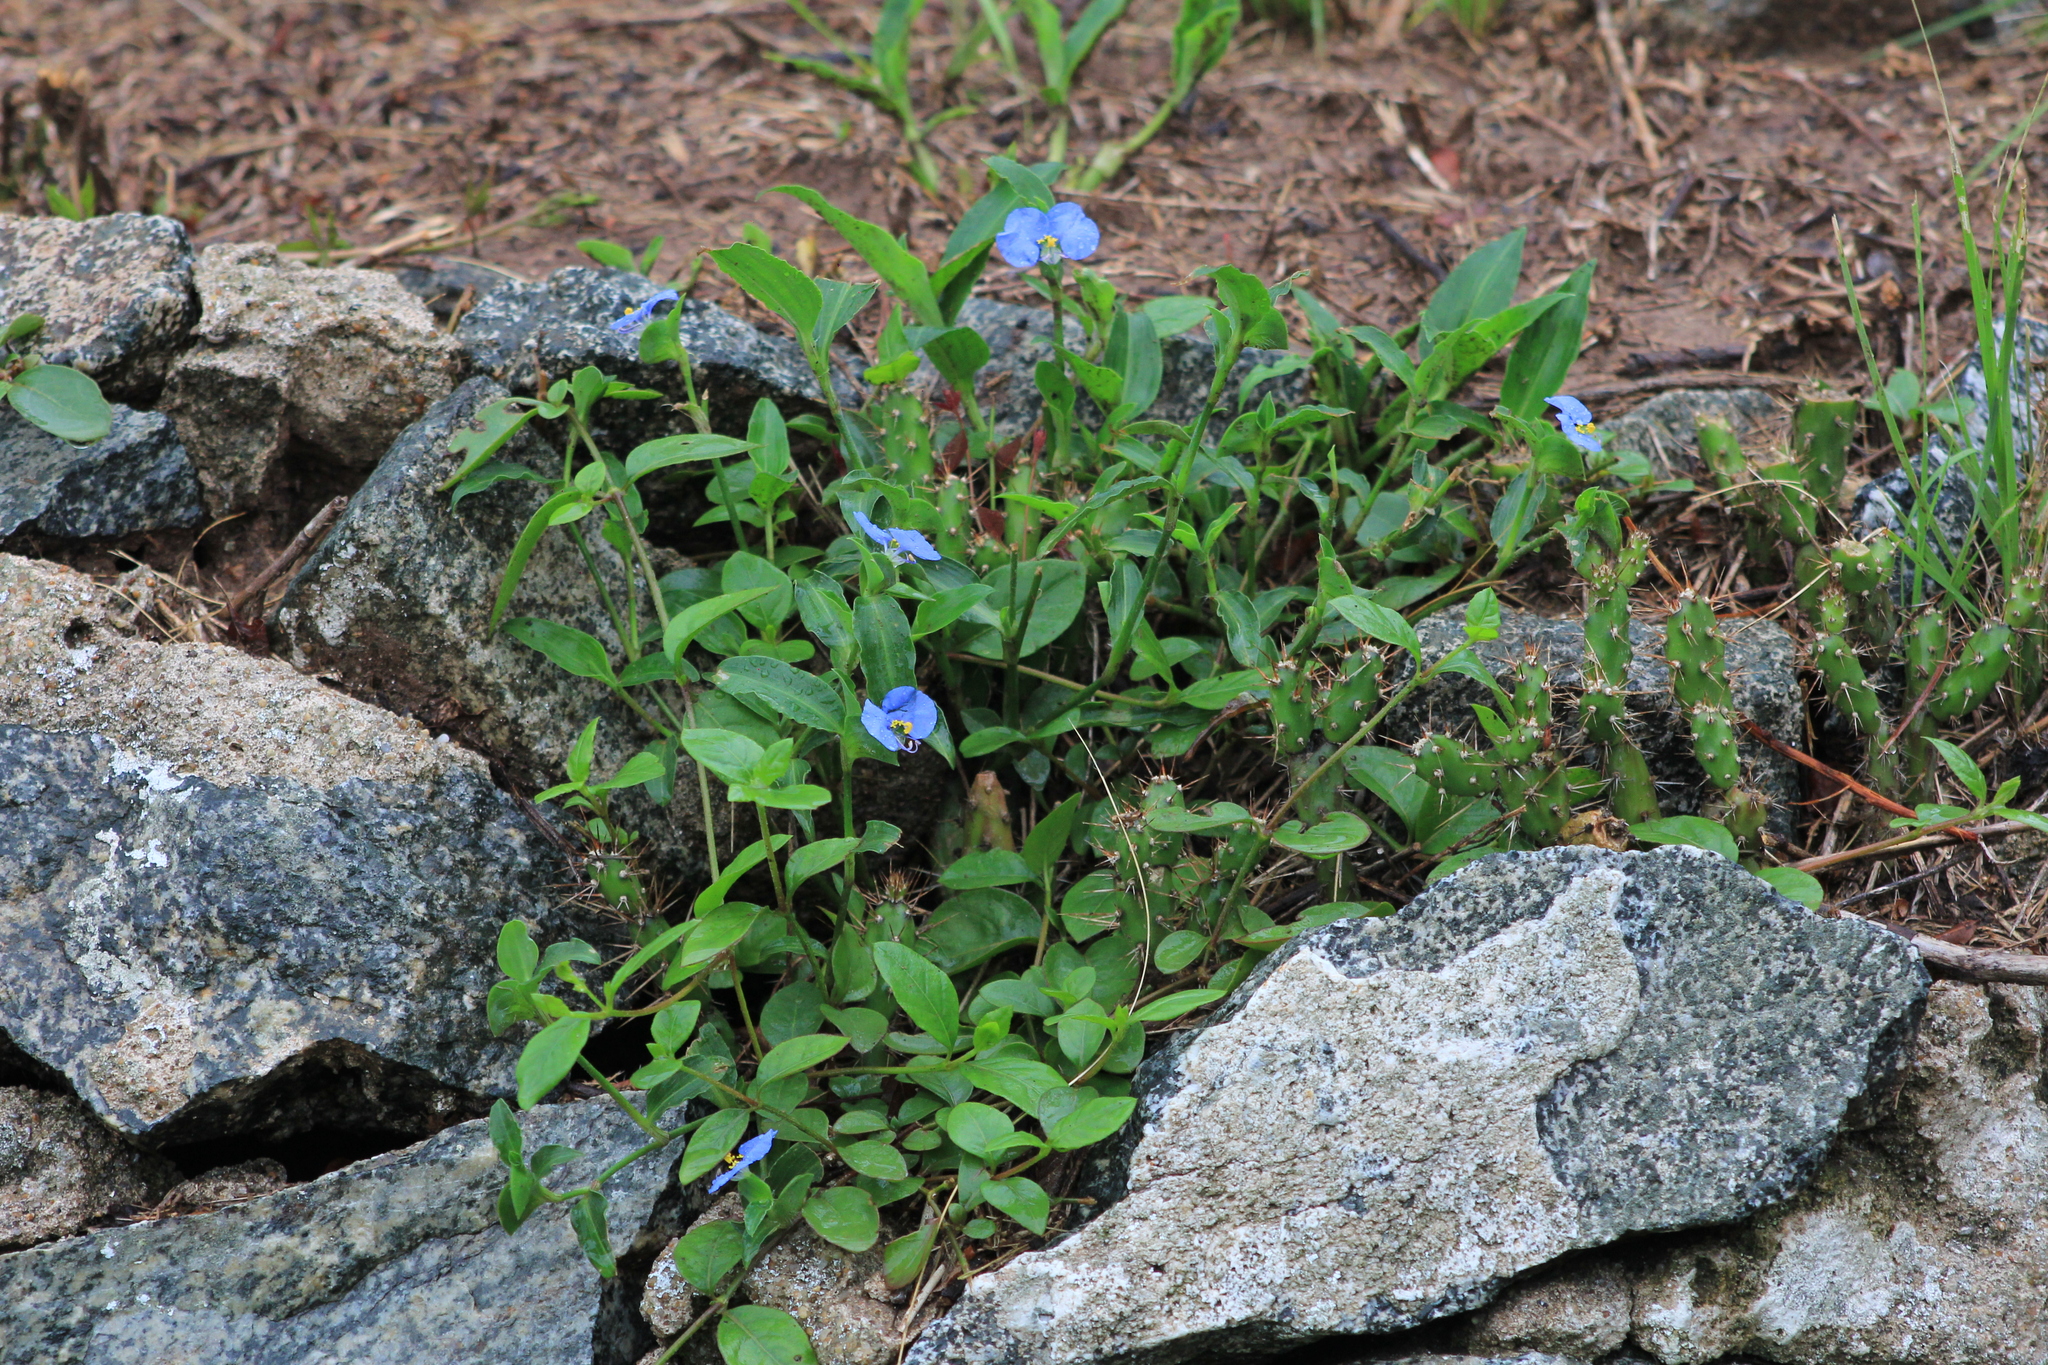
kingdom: Plantae
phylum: Tracheophyta
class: Liliopsida
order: Commelinales
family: Commelinaceae
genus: Commelina
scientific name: Commelina erecta
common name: Blousel blommetjie
